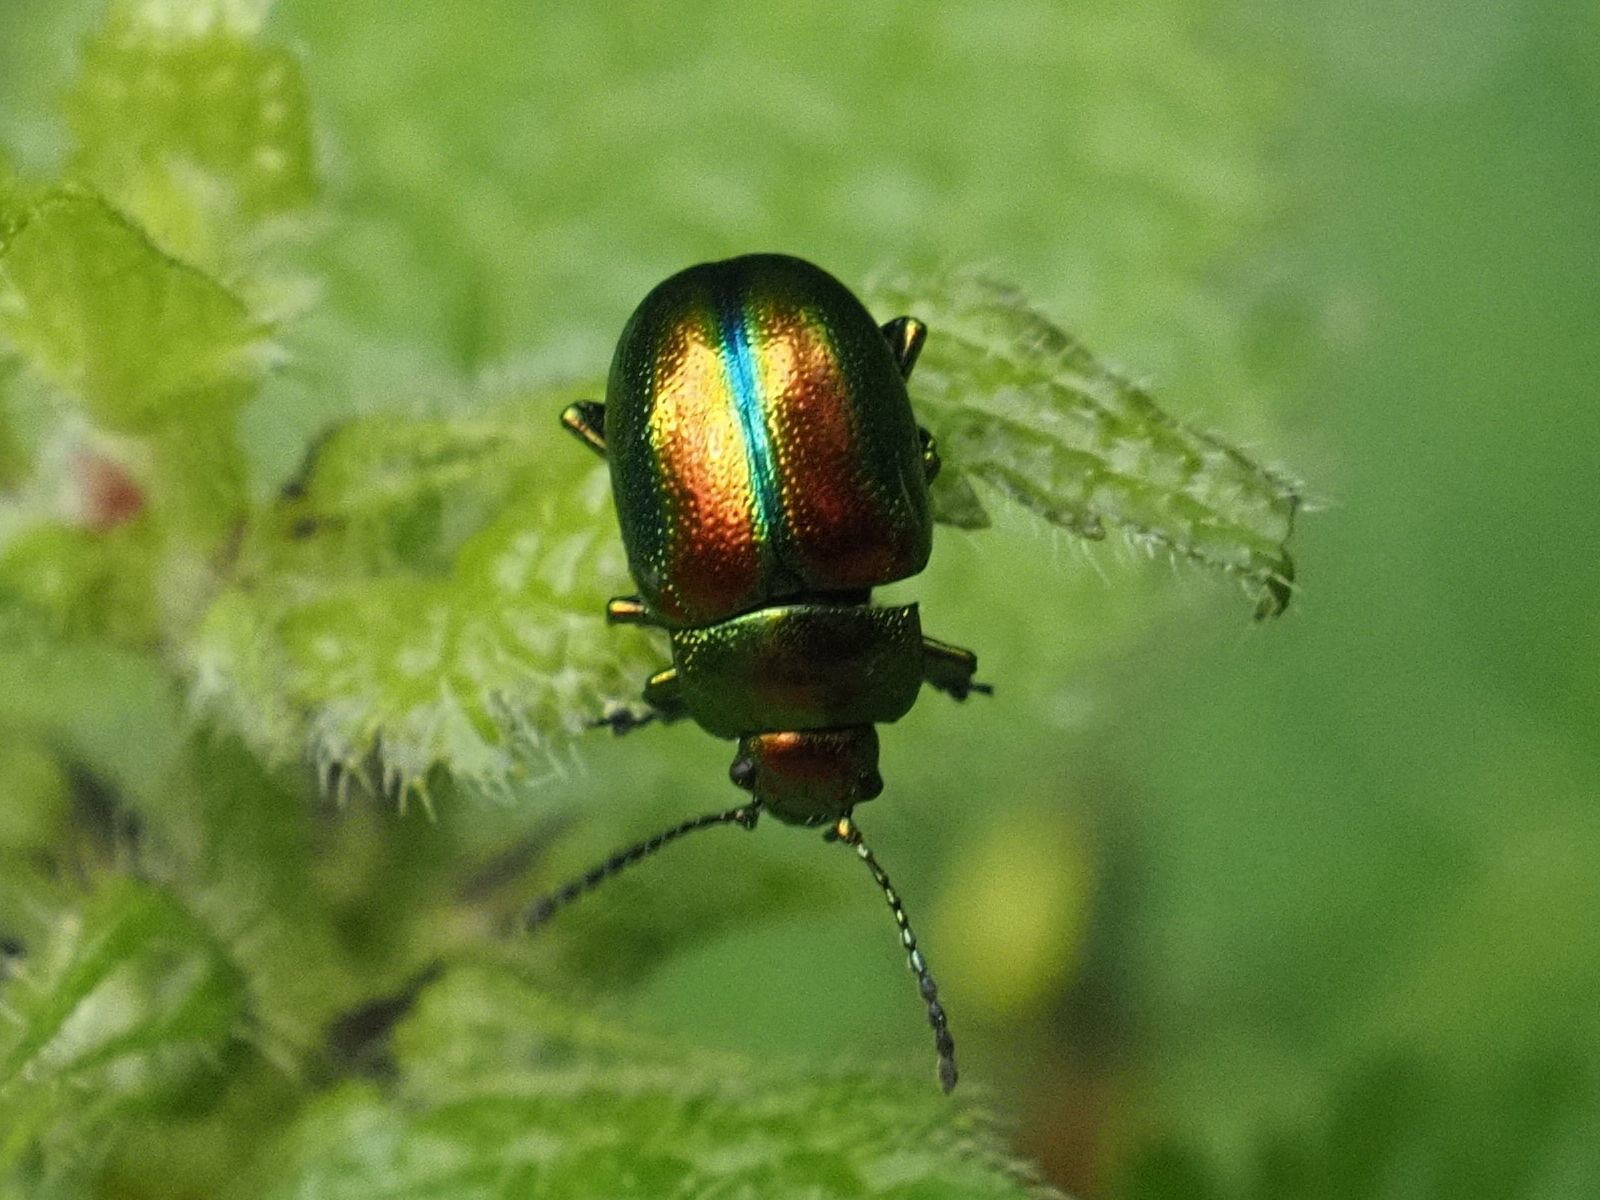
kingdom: Animalia
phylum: Arthropoda
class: Insecta
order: Coleoptera
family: Chrysomelidae
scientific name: Chrysomelidae
